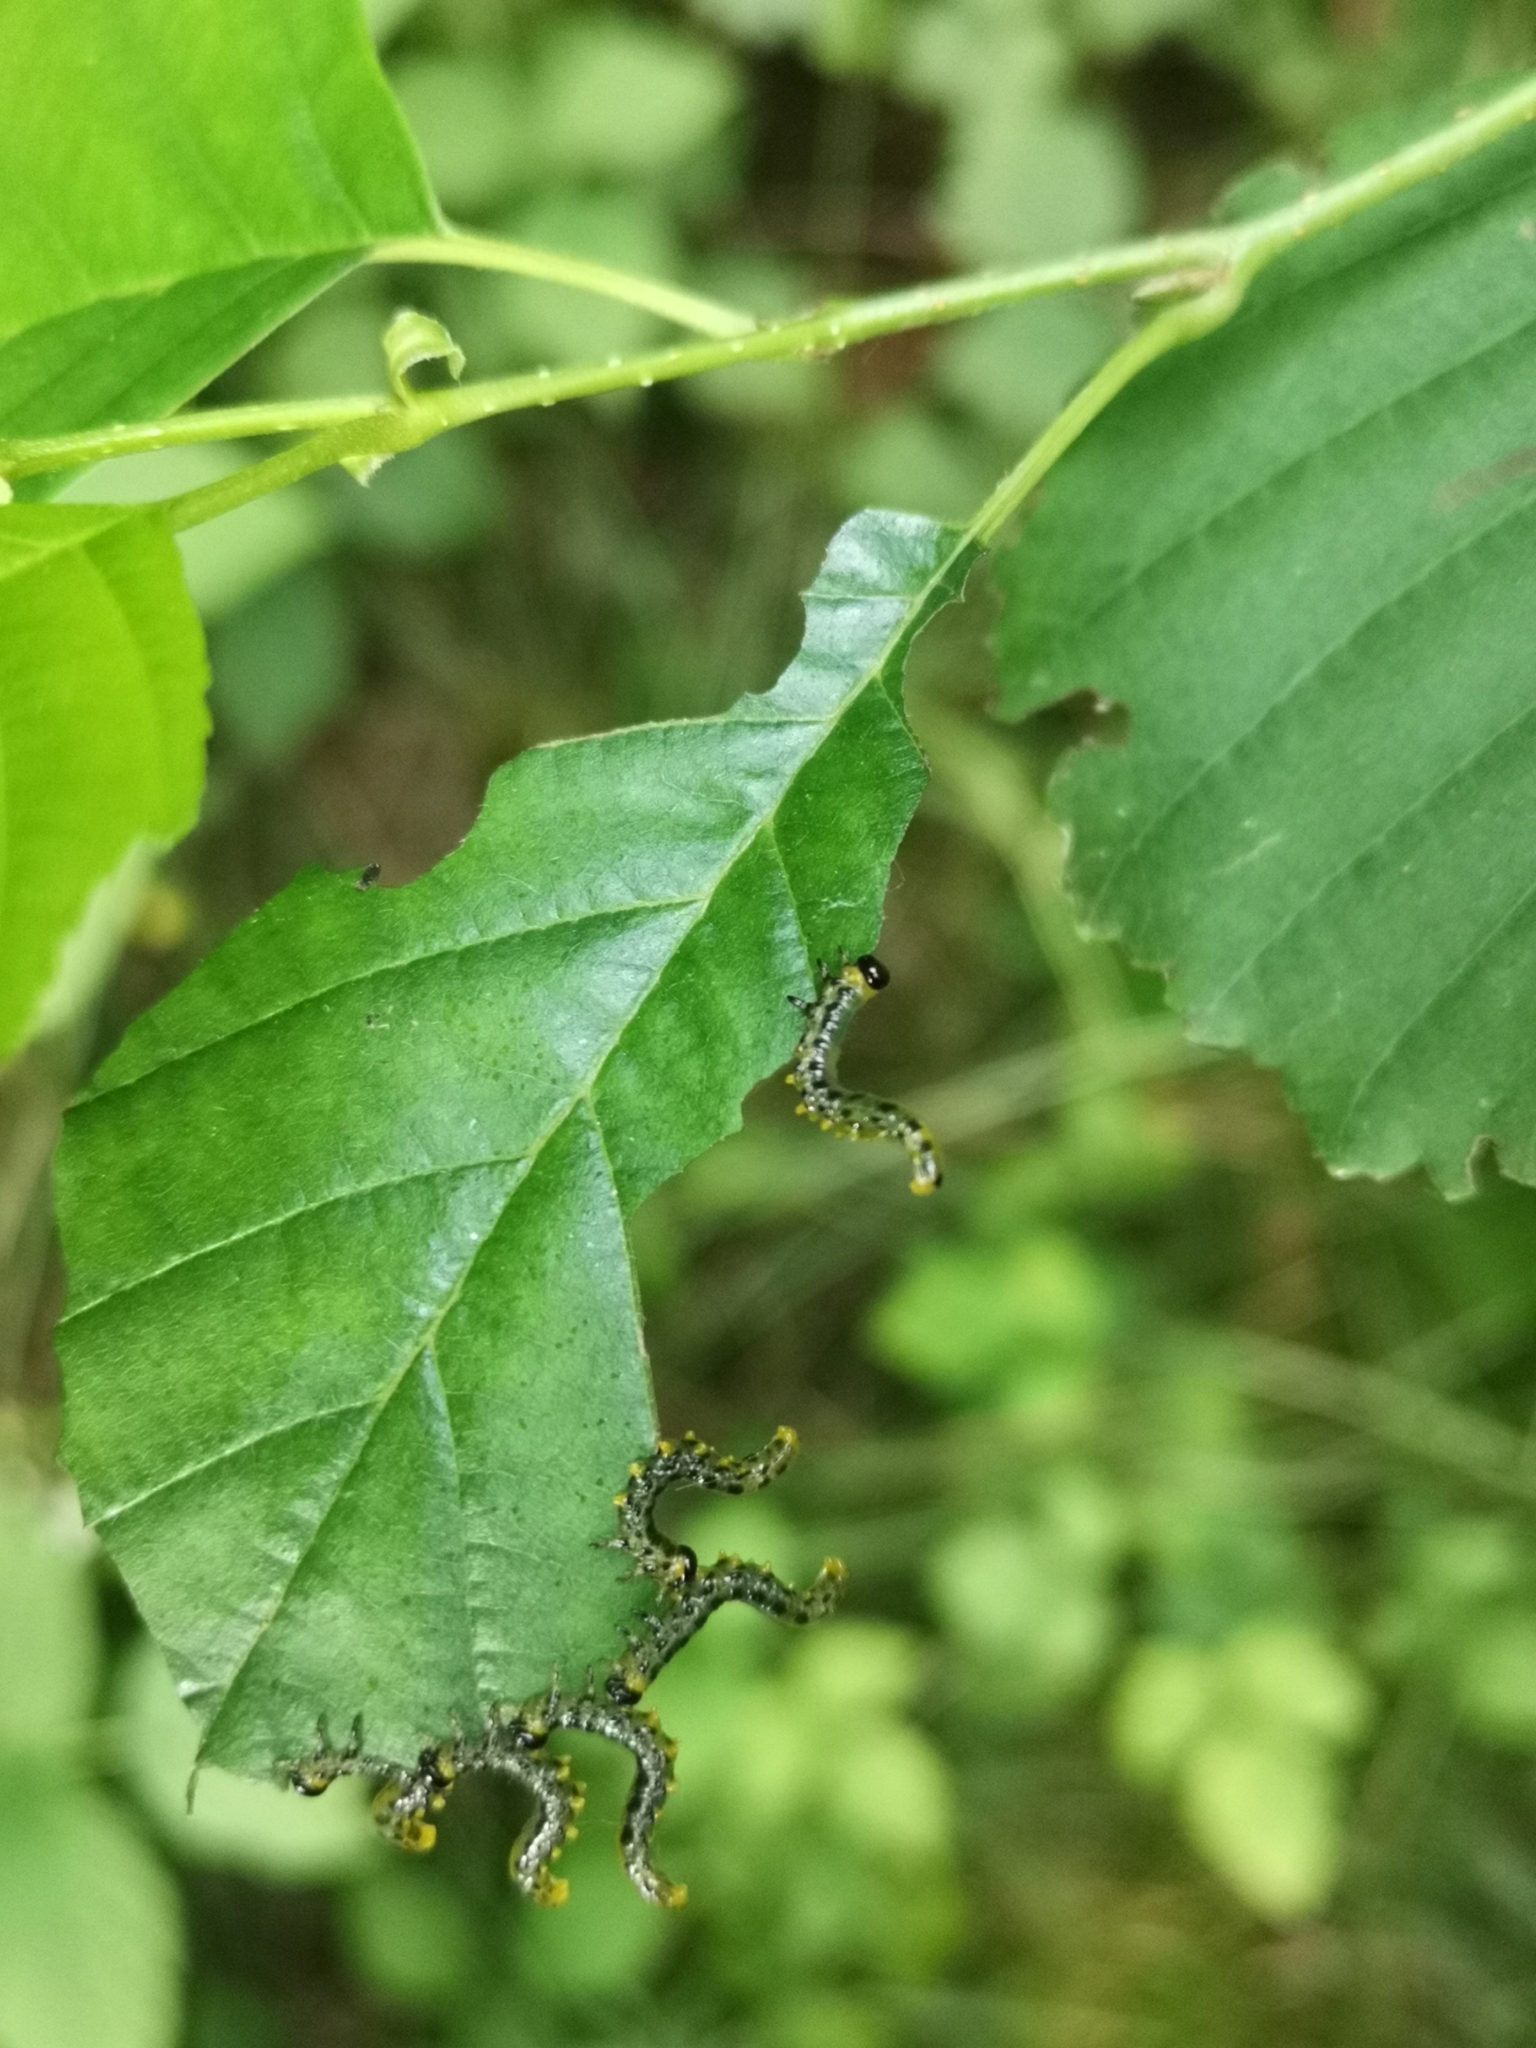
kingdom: Animalia
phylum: Arthropoda
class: Insecta
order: Hymenoptera
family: Tenthredinidae
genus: Craesus
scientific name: Craesus septentrionalis
